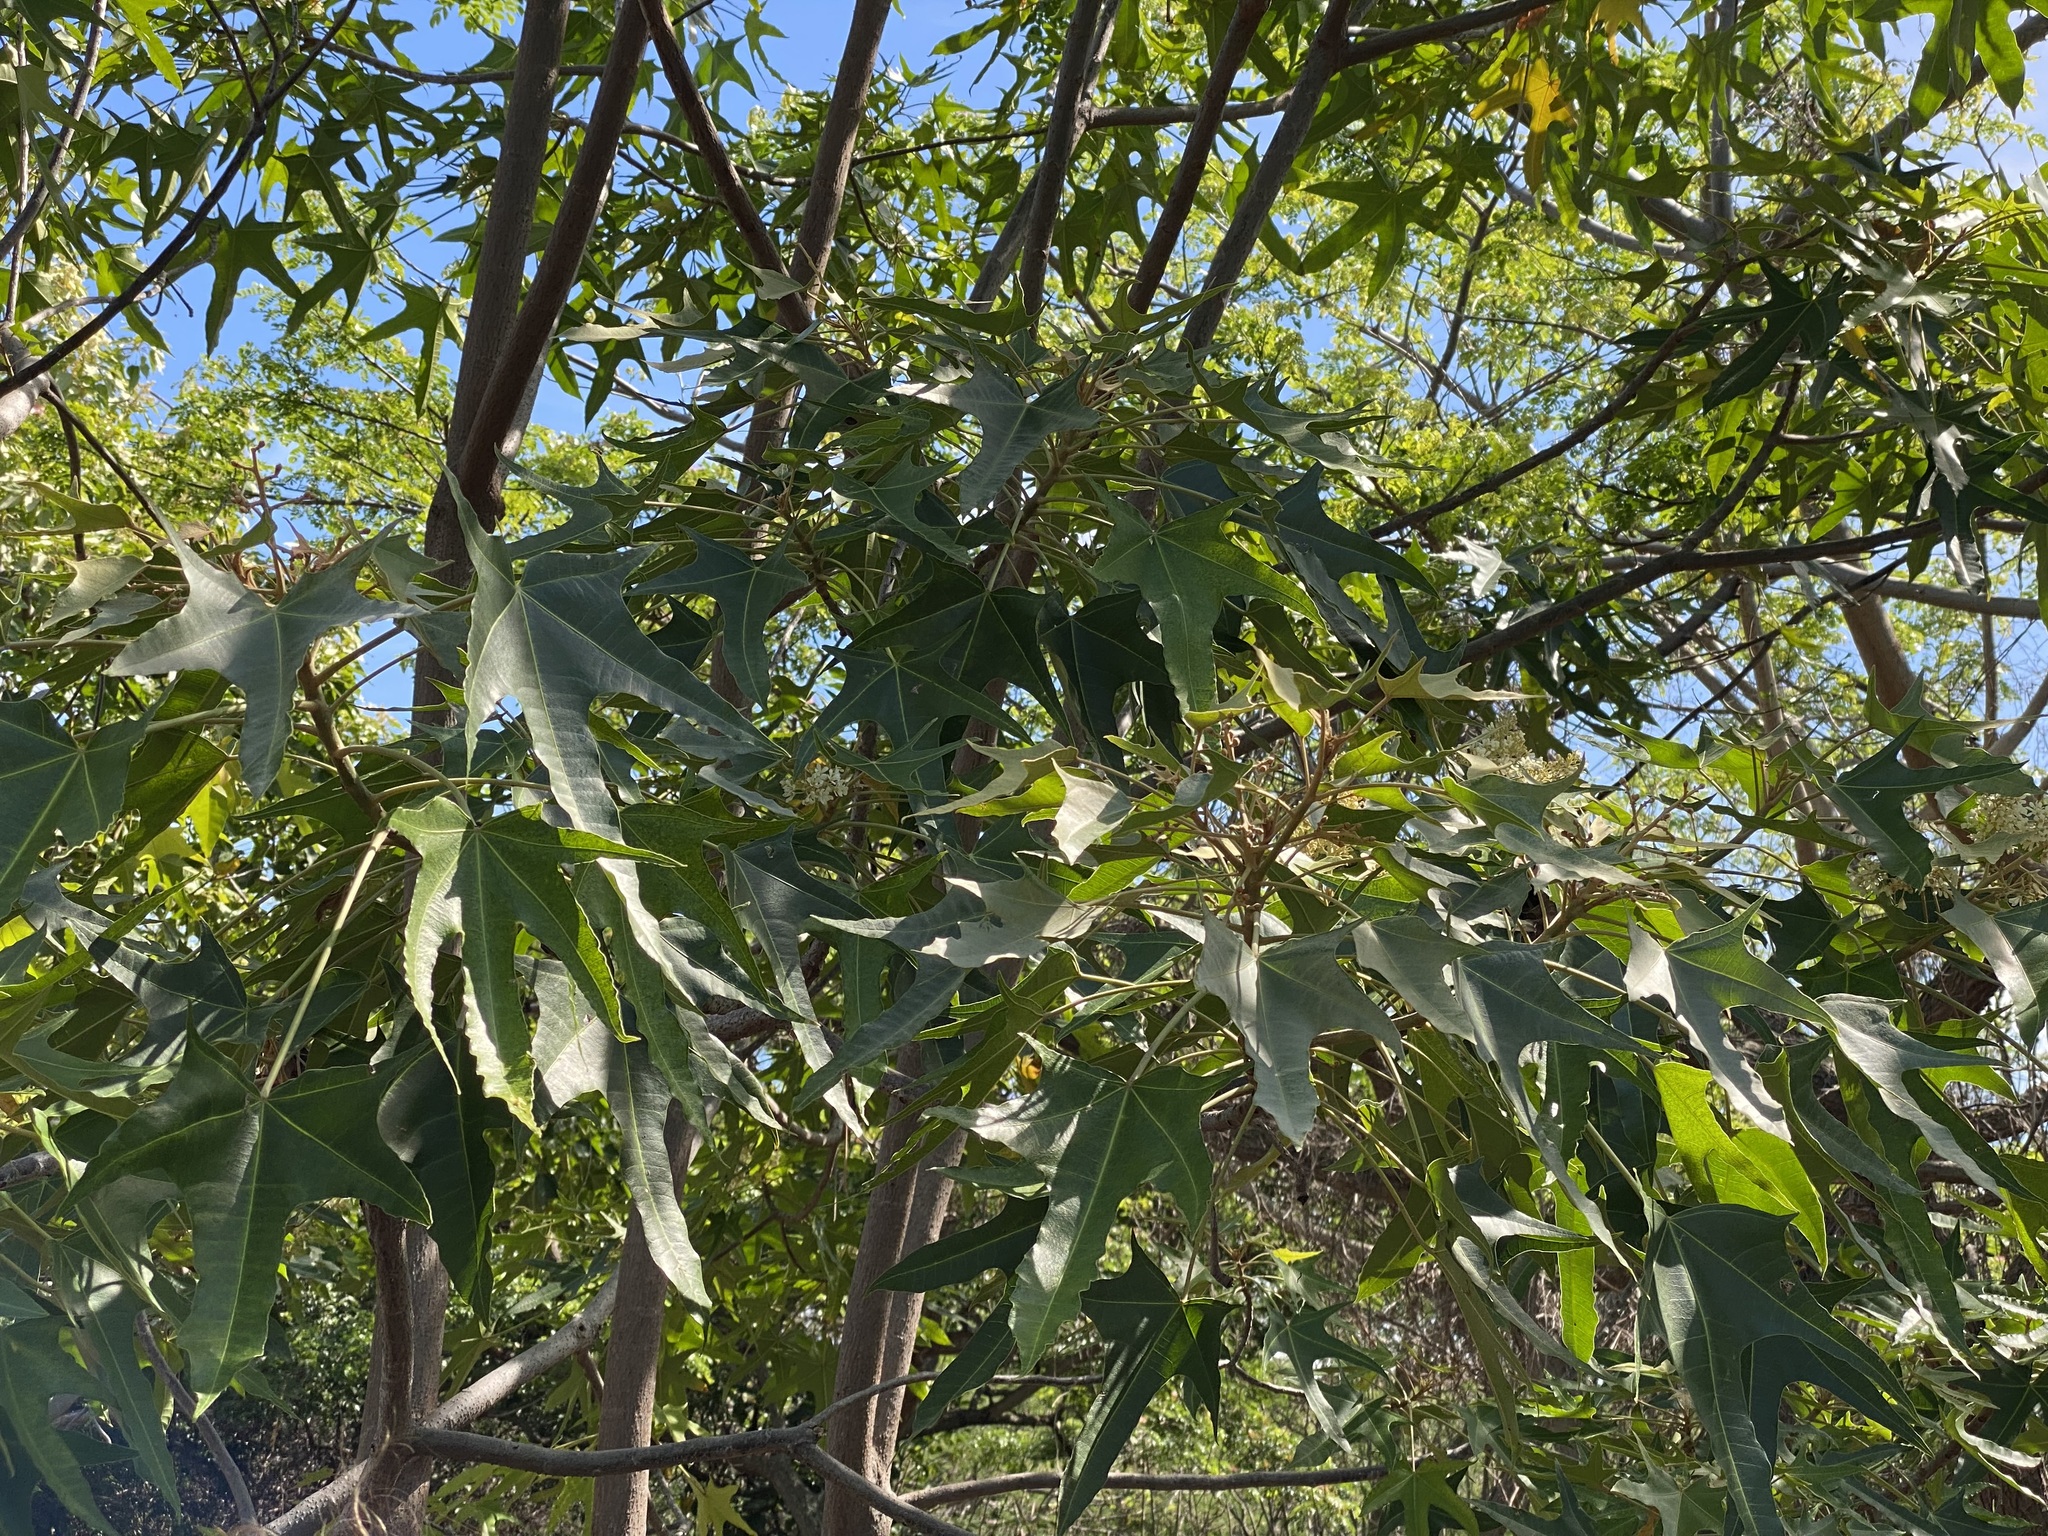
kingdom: Plantae
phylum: Tracheophyta
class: Magnoliopsida
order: Malpighiales
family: Euphorbiaceae
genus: Aleurites
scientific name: Aleurites moluccanus
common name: Candlenut tree
